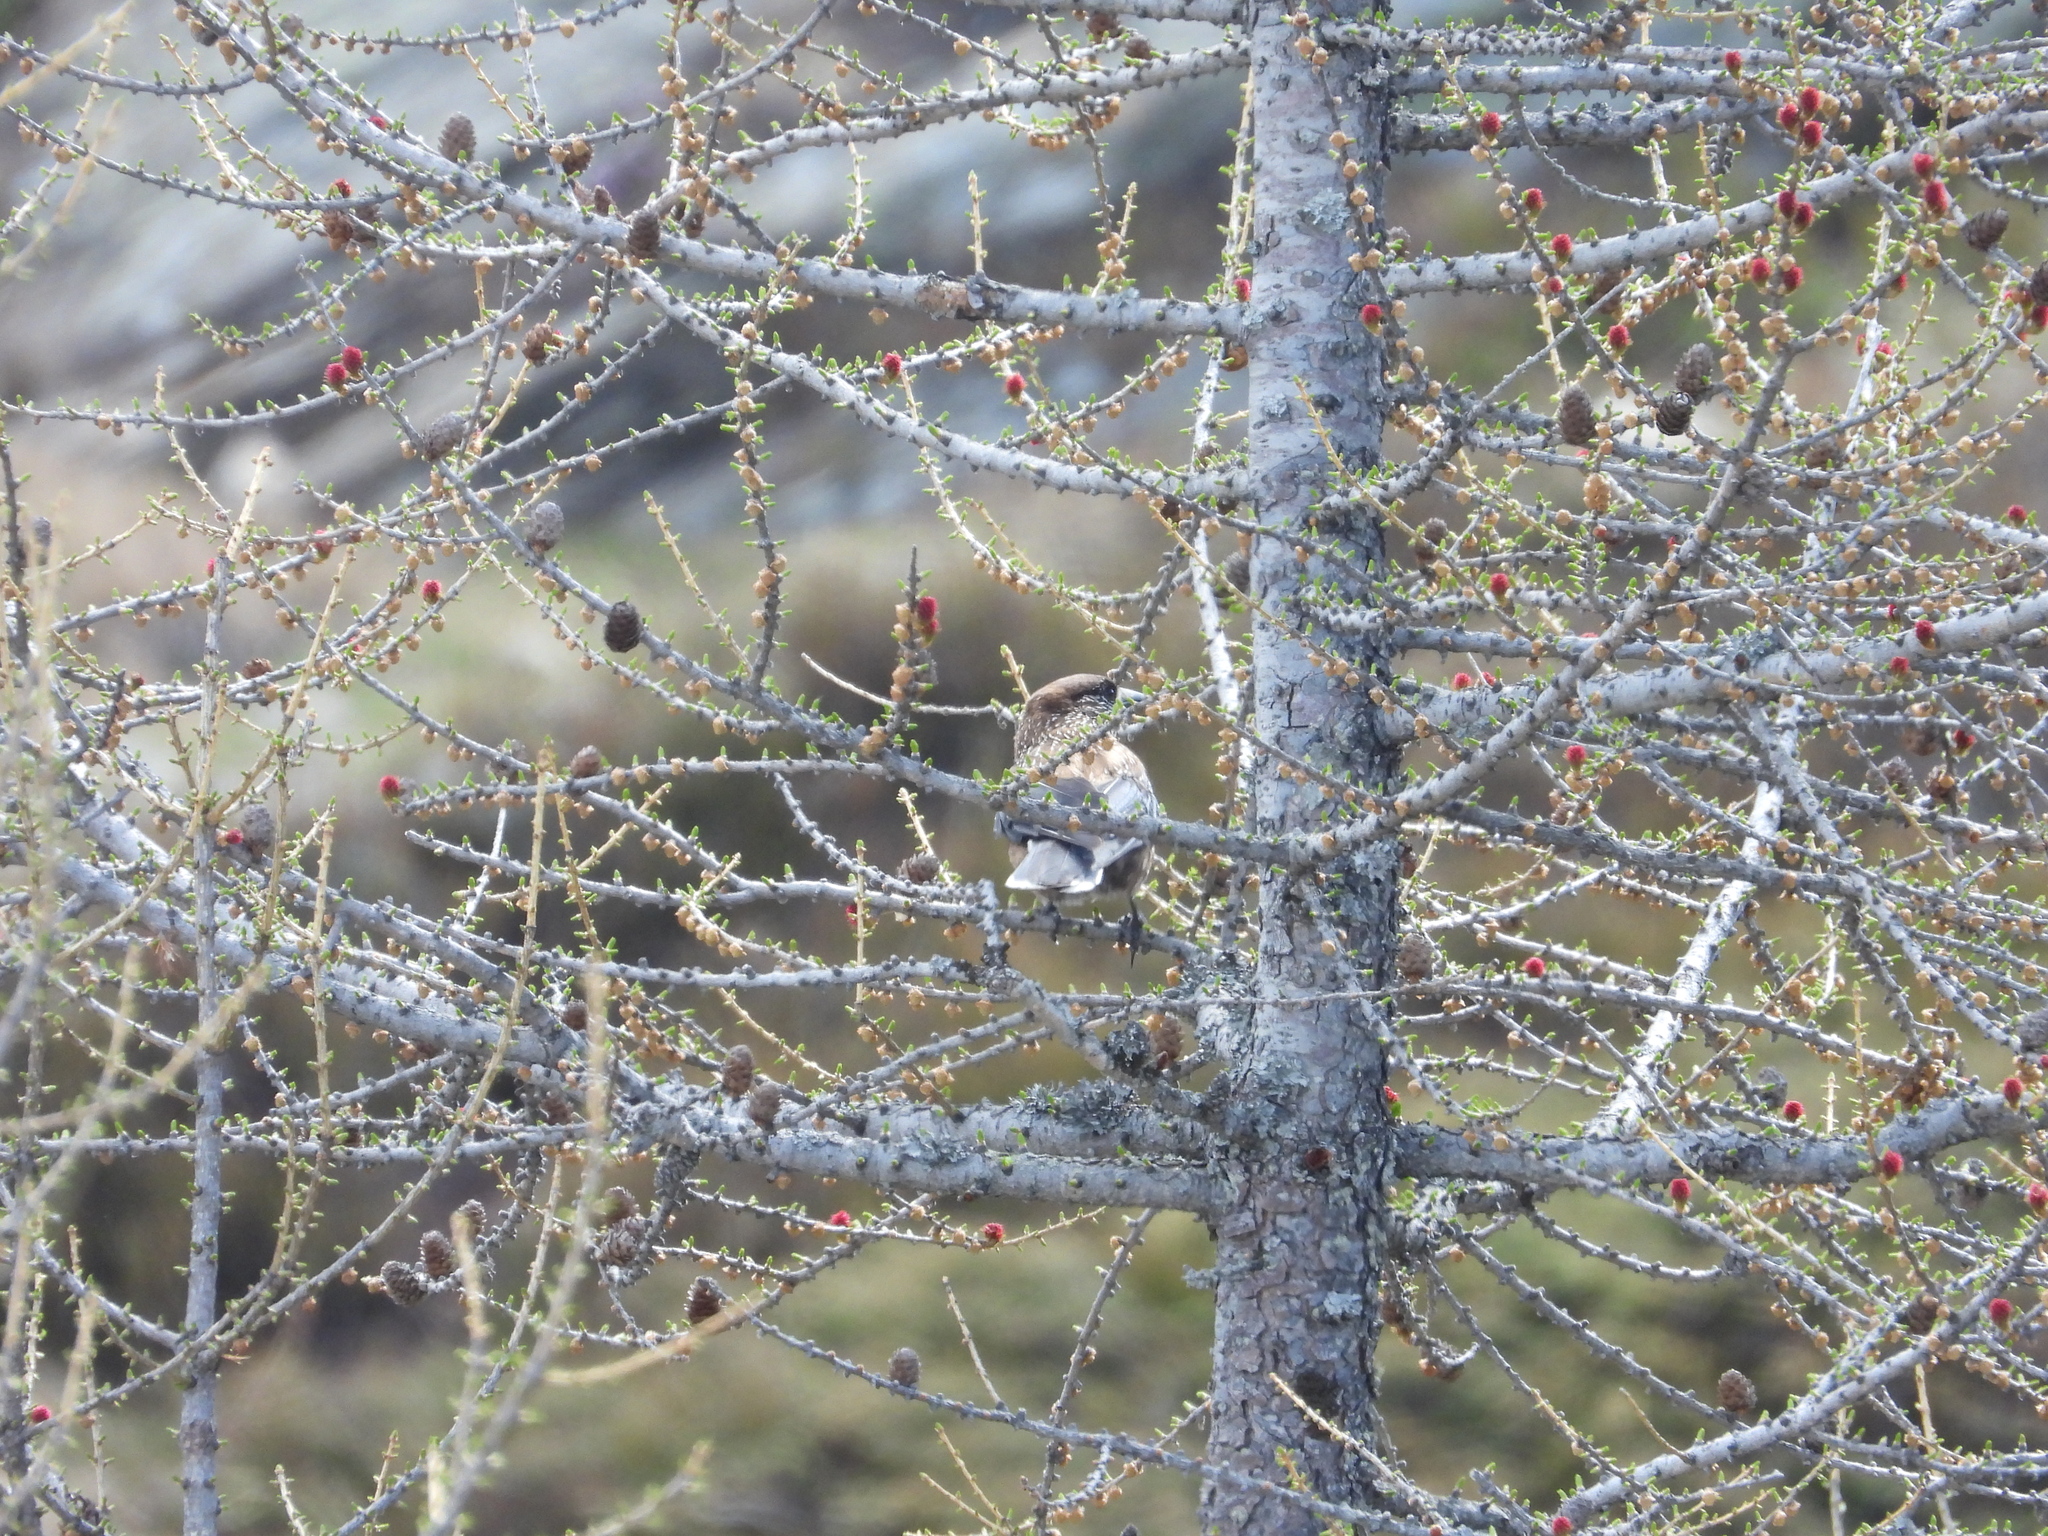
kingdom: Animalia
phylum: Chordata
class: Aves
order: Passeriformes
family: Corvidae
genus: Nucifraga
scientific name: Nucifraga caryocatactes
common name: Spotted nutcracker
